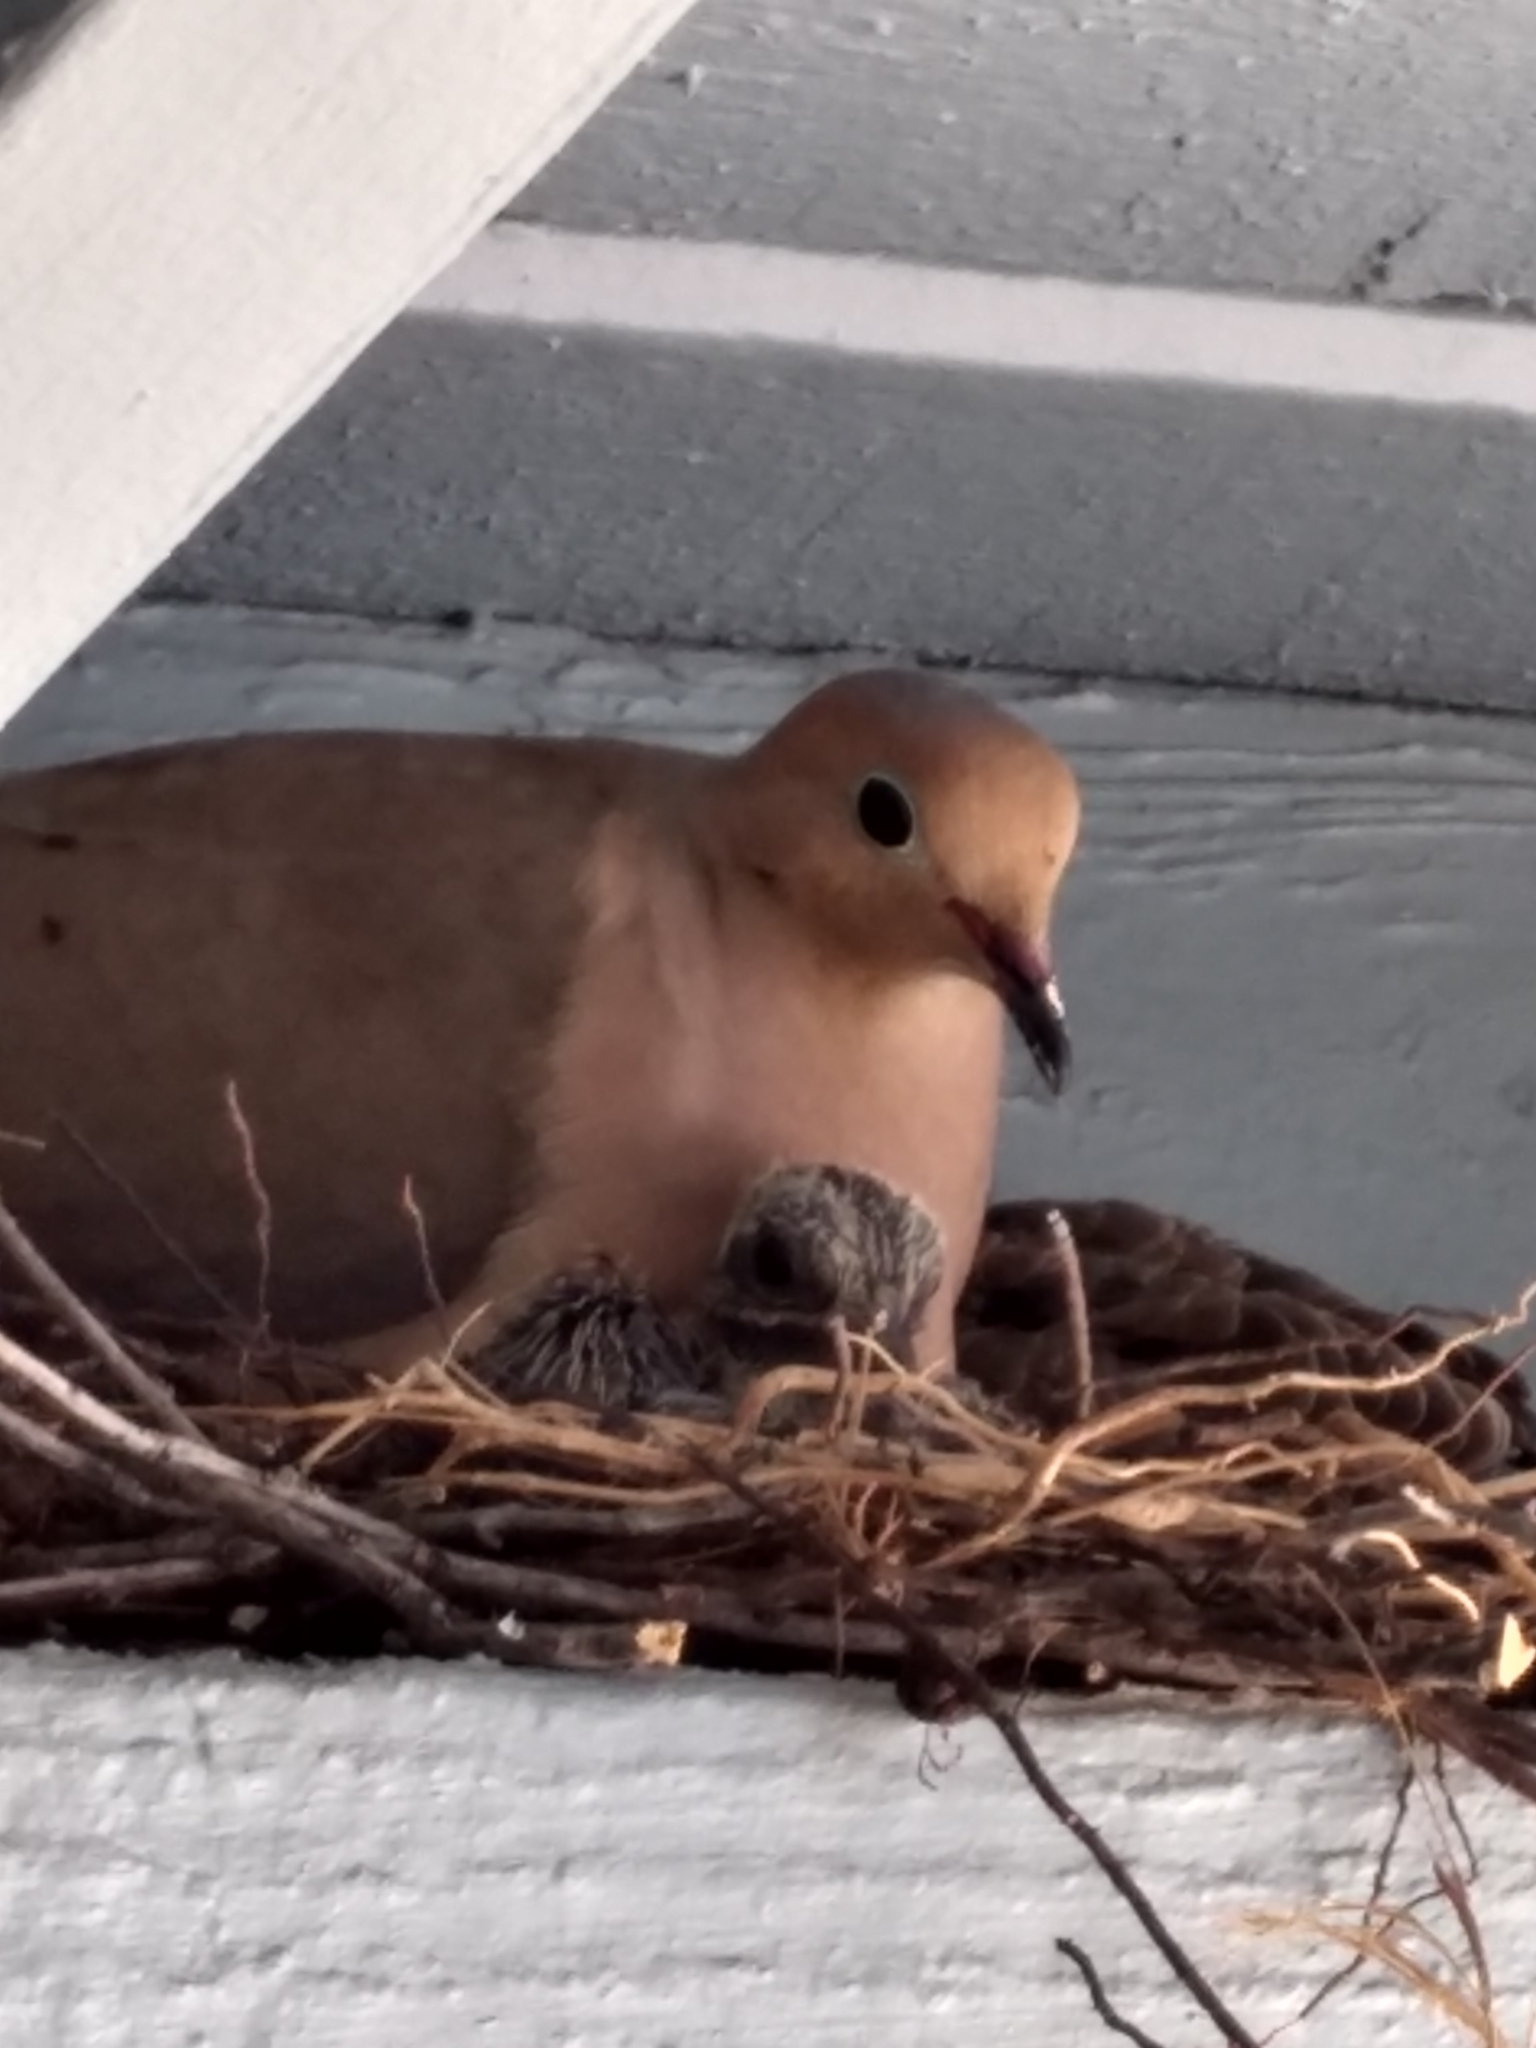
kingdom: Animalia
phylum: Chordata
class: Aves
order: Columbiformes
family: Columbidae
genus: Zenaida
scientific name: Zenaida macroura
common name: Mourning dove
